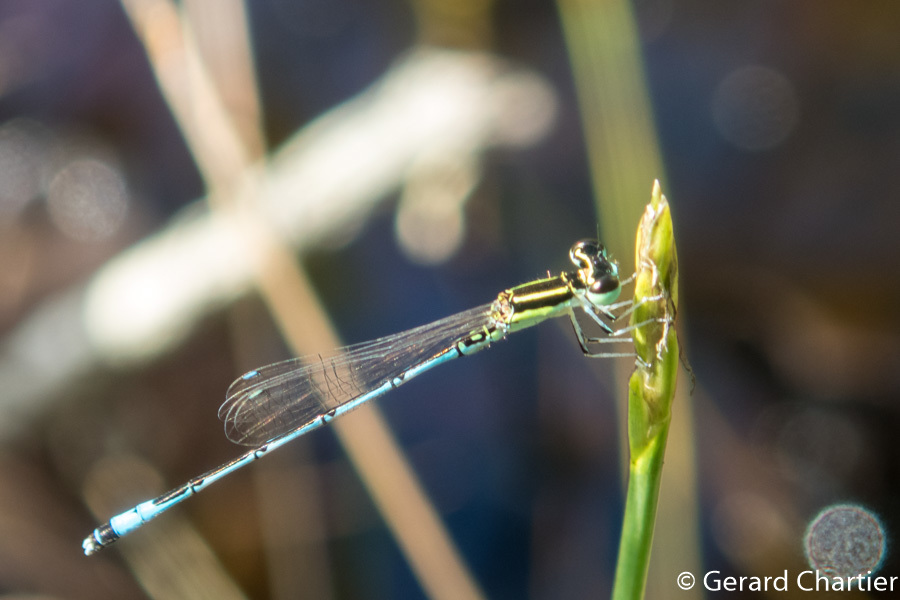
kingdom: Animalia
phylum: Arthropoda
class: Insecta
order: Odonata
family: Coenagrionidae
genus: Agriocnemis
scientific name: Agriocnemis nana
